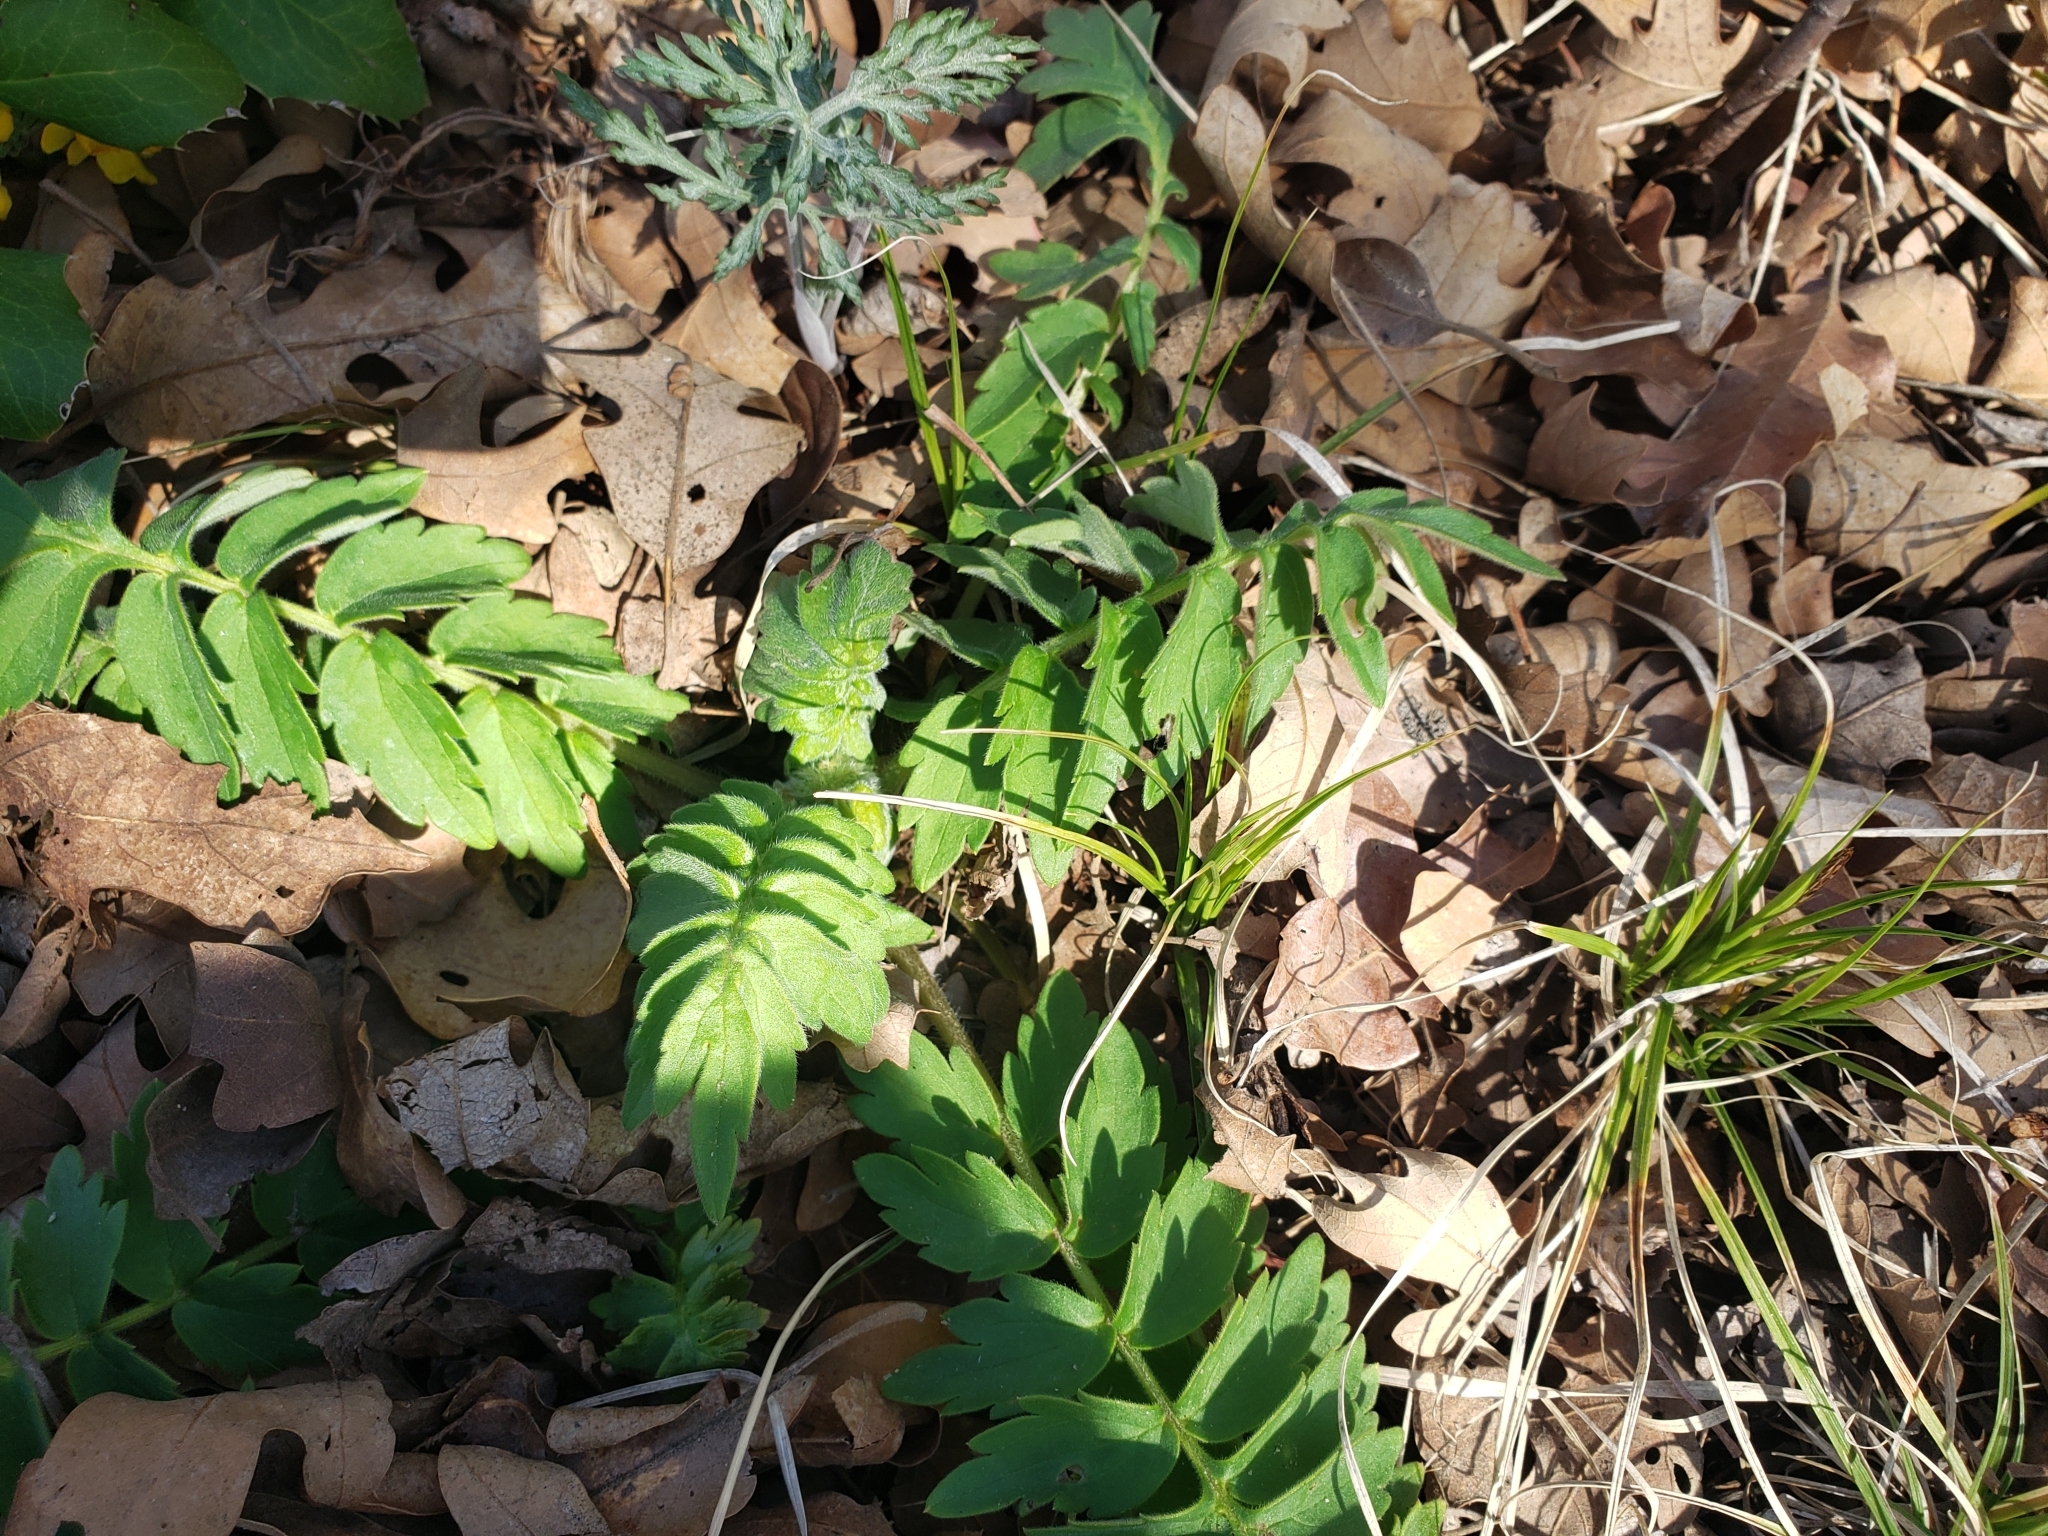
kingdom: Plantae
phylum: Tracheophyta
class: Magnoliopsida
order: Boraginales
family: Hydrophyllaceae
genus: Hydrophyllum
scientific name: Hydrophyllum fendleri
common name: Fendler's waterleaf
